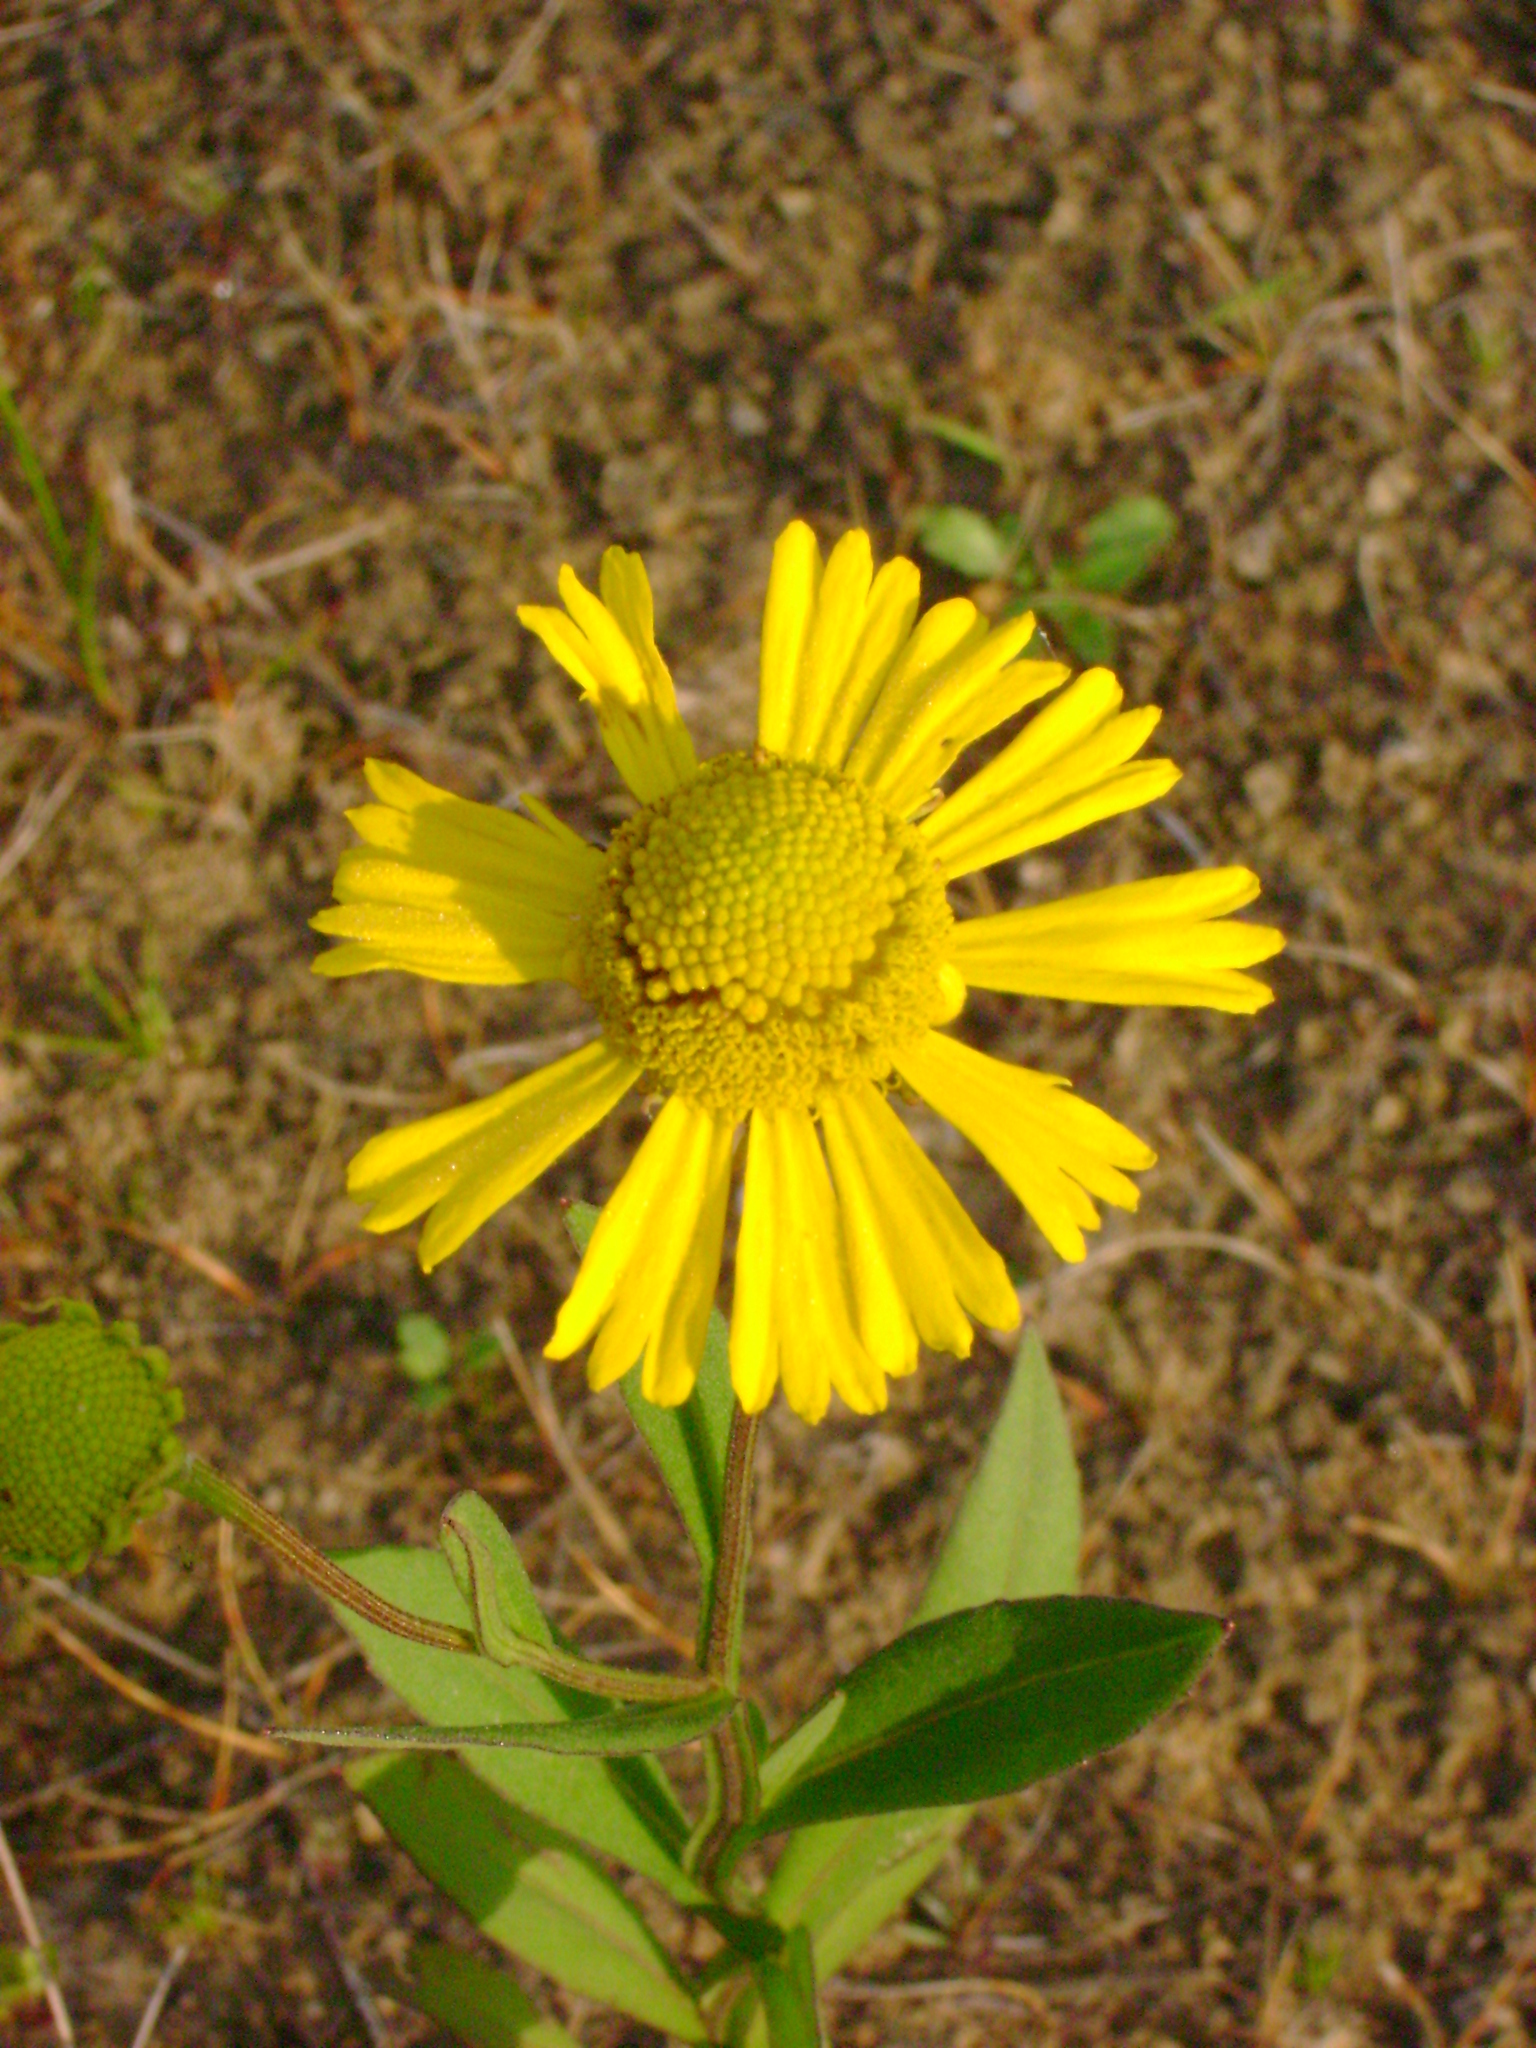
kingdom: Plantae
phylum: Tracheophyta
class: Magnoliopsida
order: Asterales
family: Asteraceae
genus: Helenium
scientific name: Helenium autumnale
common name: Sneezeweed
